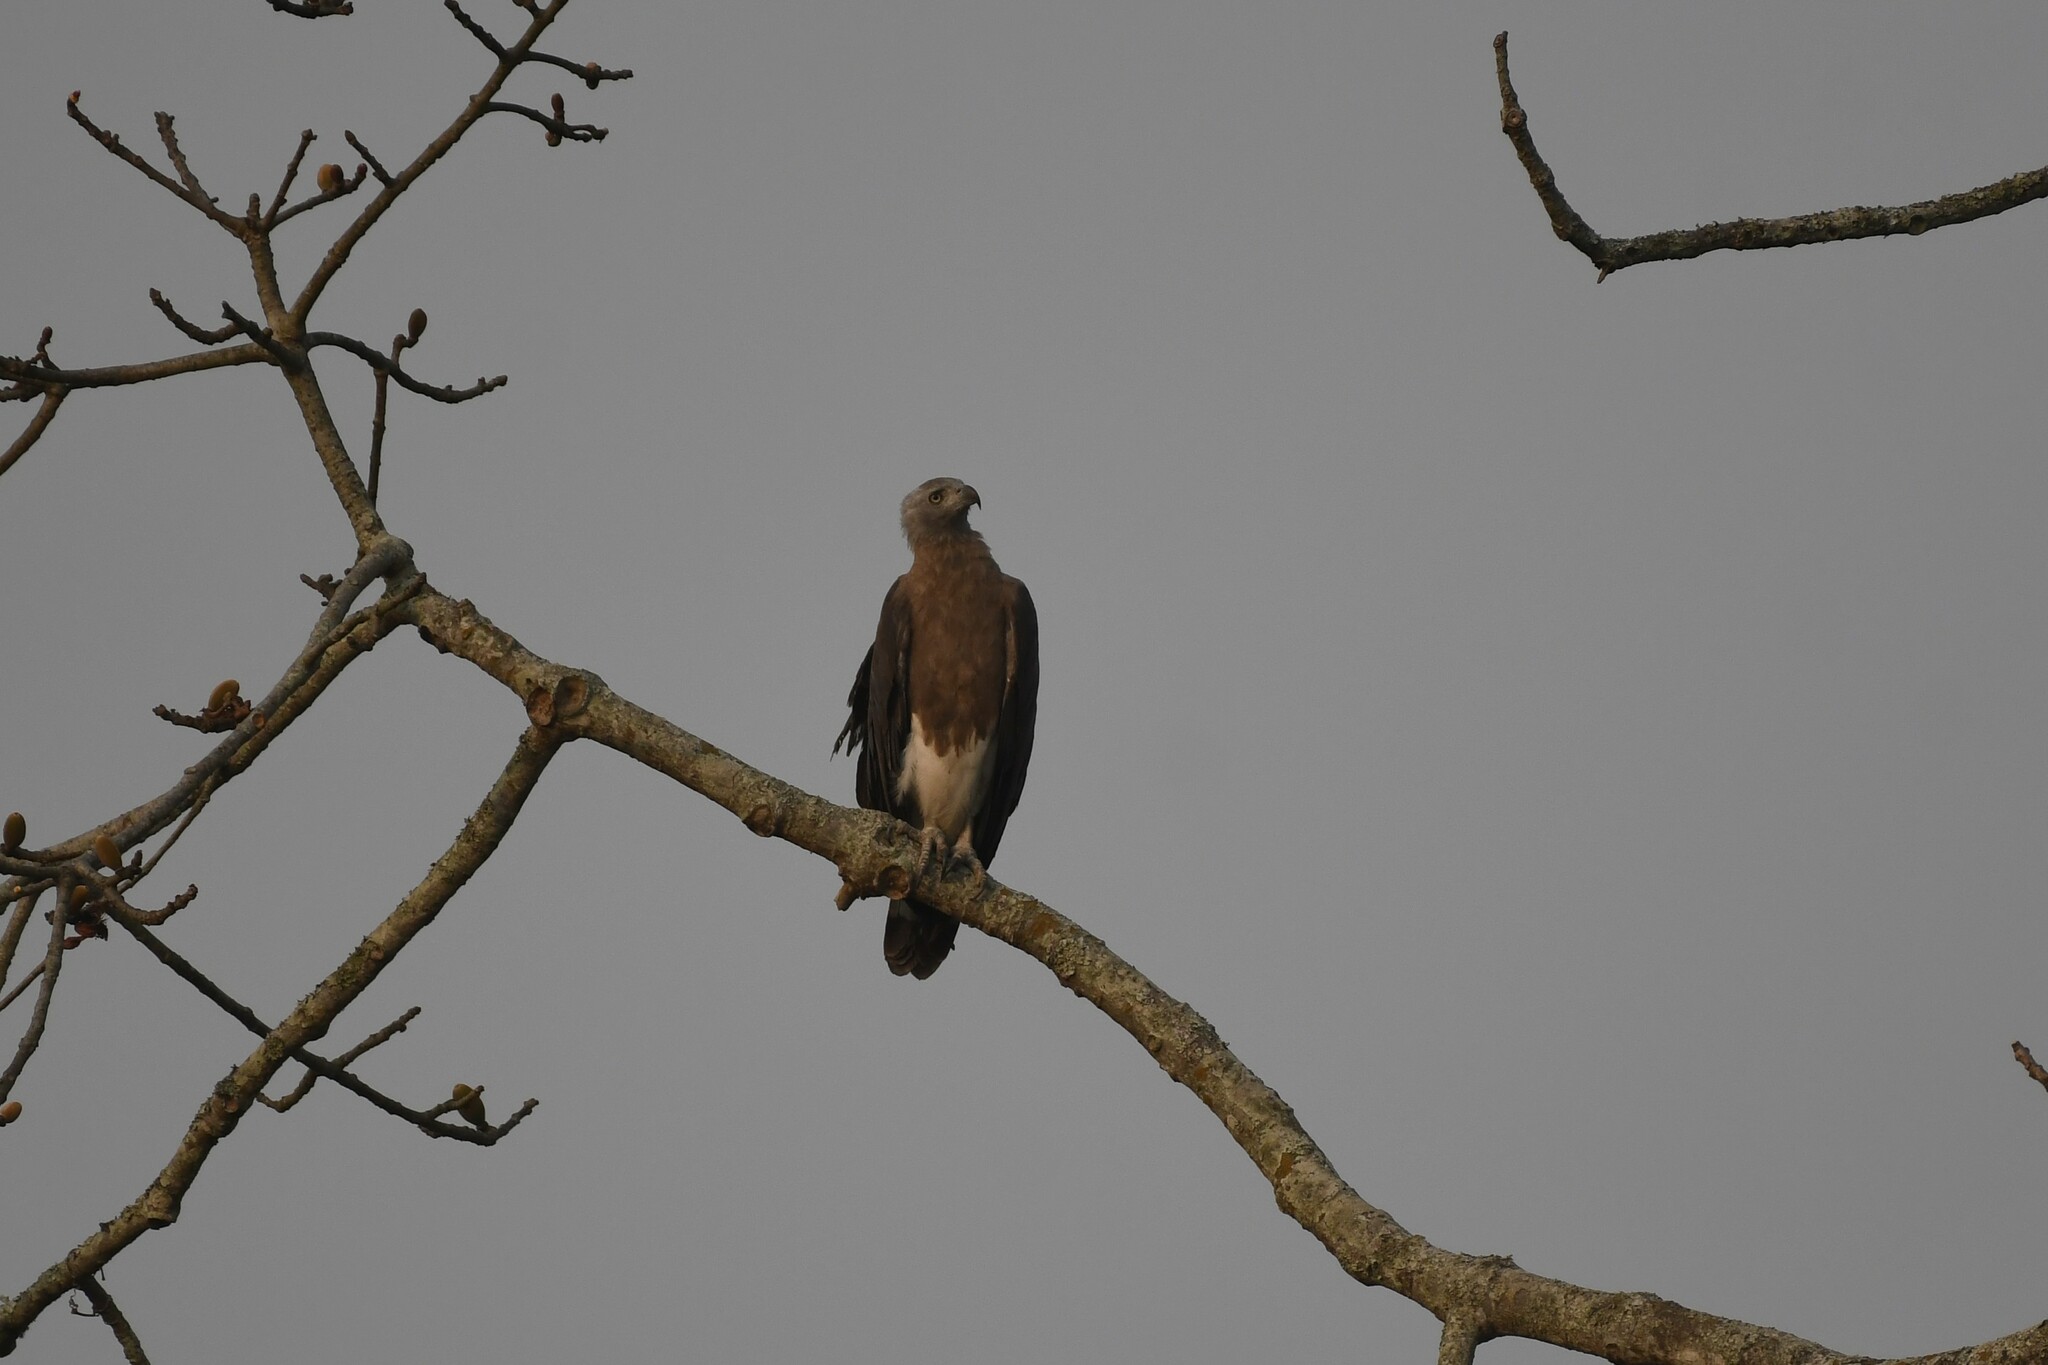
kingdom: Animalia
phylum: Chordata
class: Aves
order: Accipitriformes
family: Accipitridae
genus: Icthyophaga
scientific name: Icthyophaga ichthyaetus
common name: Grey-headed fish eagle
